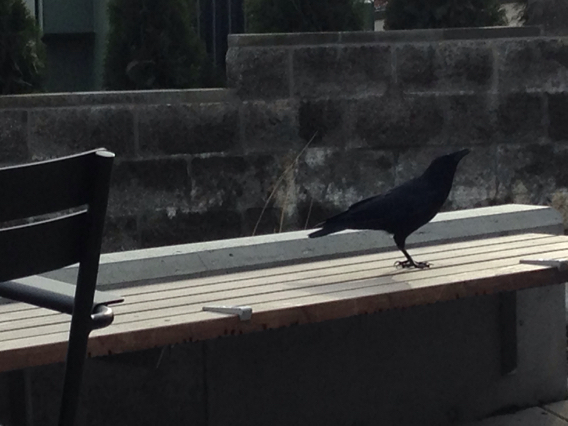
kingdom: Animalia
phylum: Chordata
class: Aves
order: Passeriformes
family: Corvidae
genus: Corvus
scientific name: Corvus brachyrhynchos
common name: American crow
